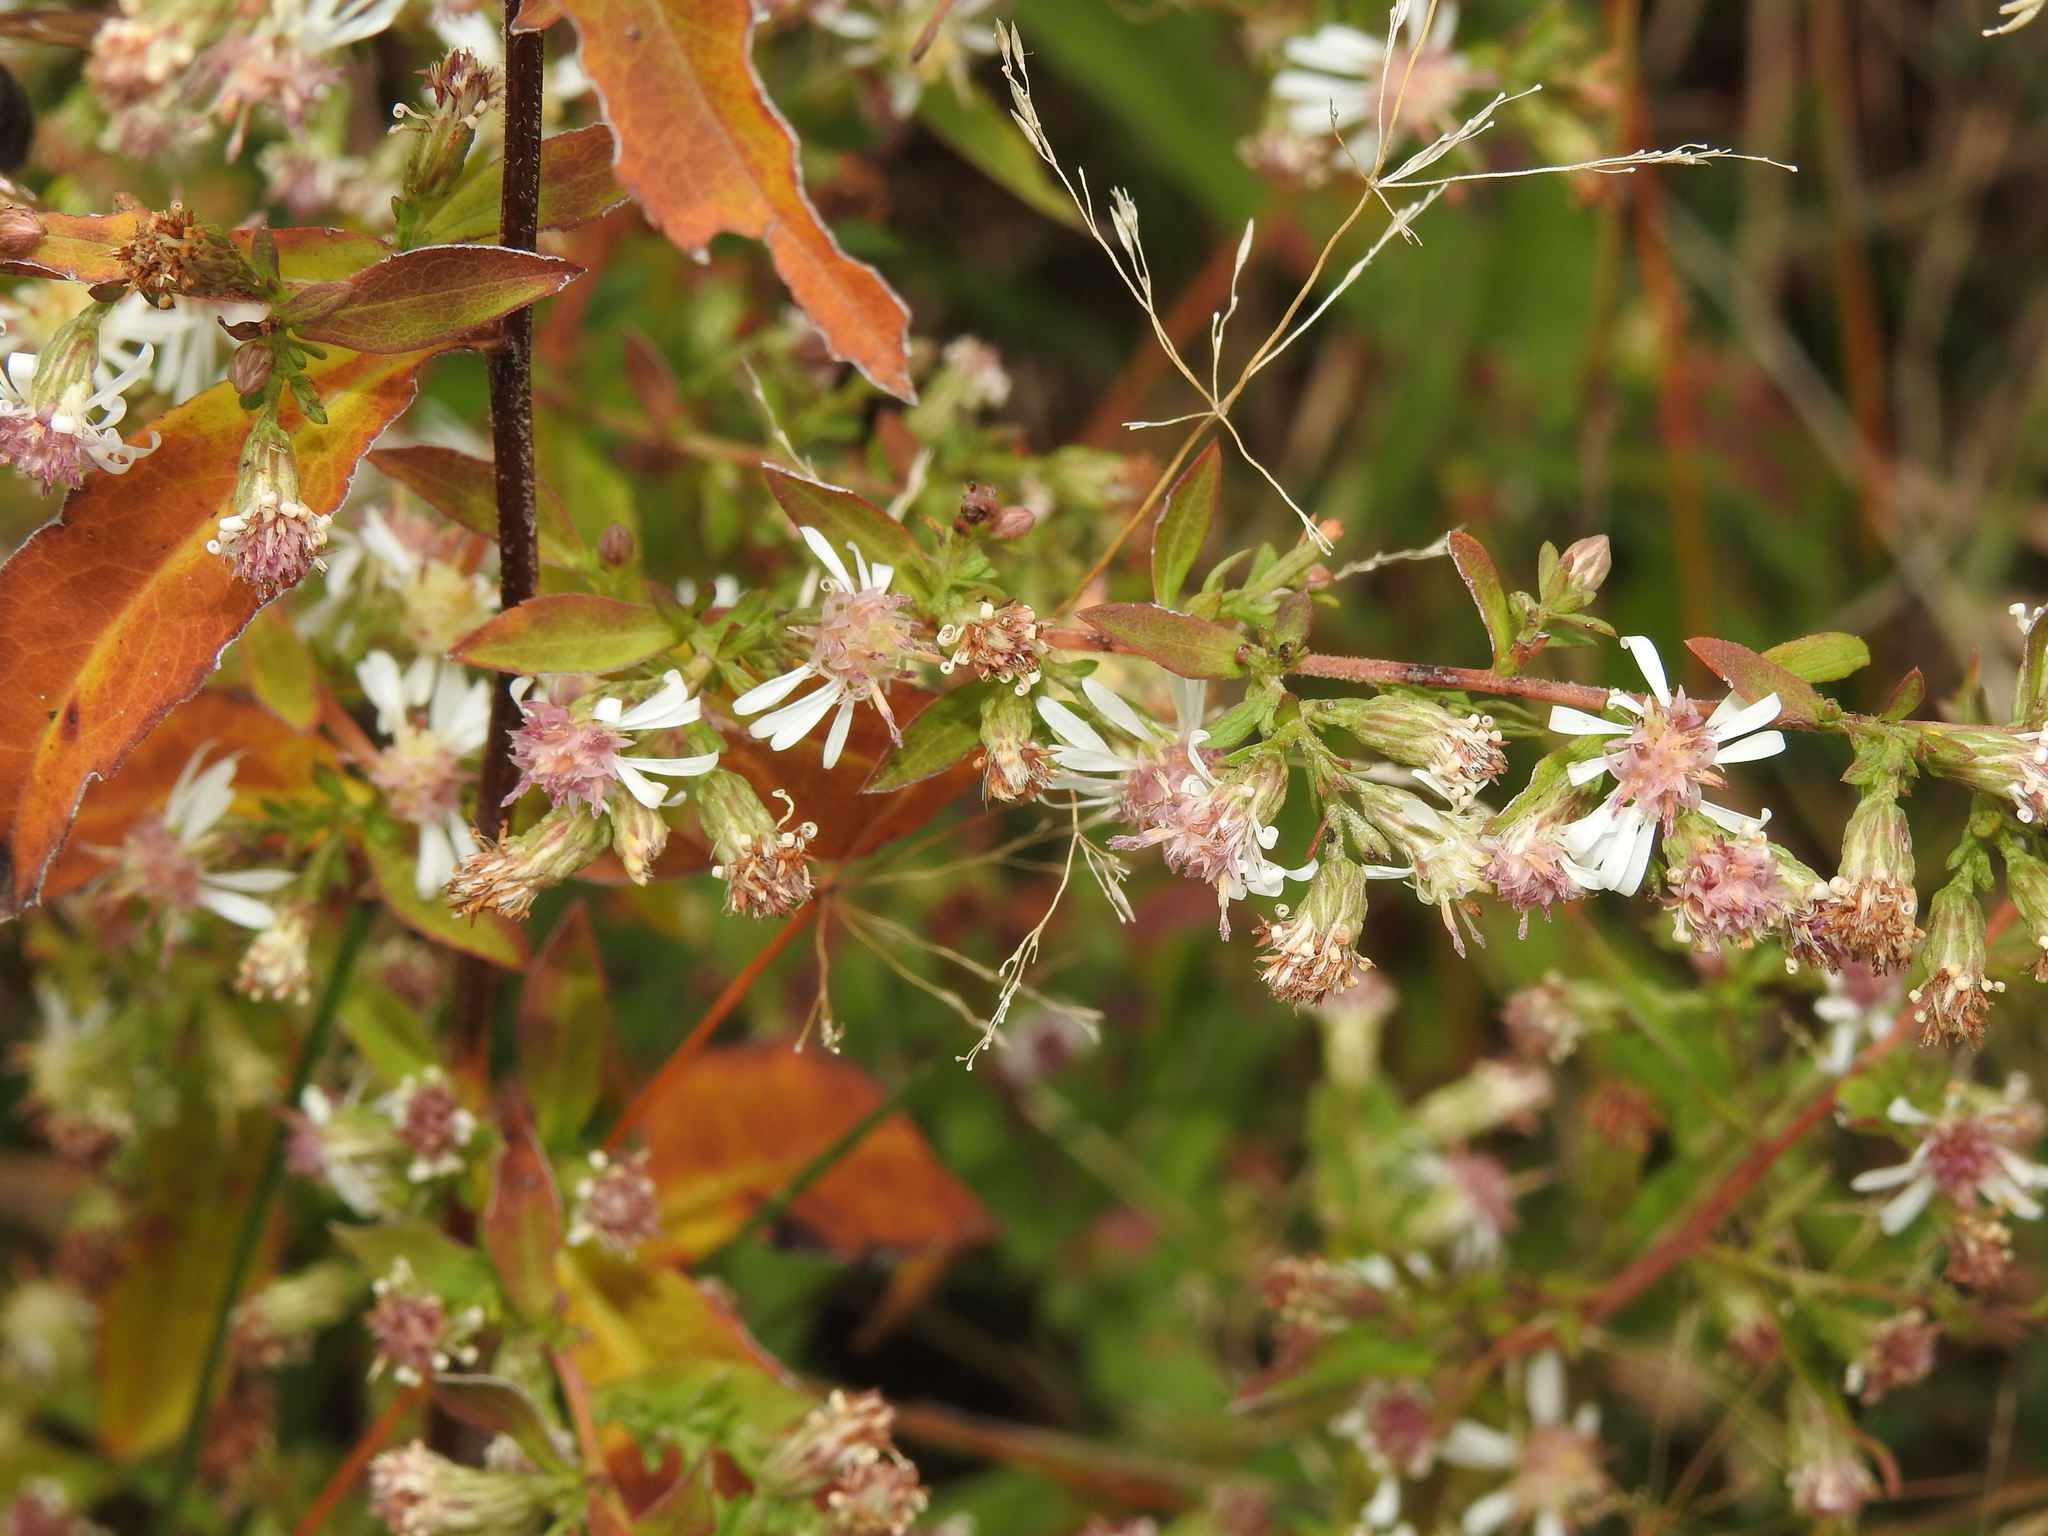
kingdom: Plantae
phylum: Tracheophyta
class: Magnoliopsida
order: Asterales
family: Asteraceae
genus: Symphyotrichum
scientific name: Symphyotrichum lateriflorum
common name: Calico aster
